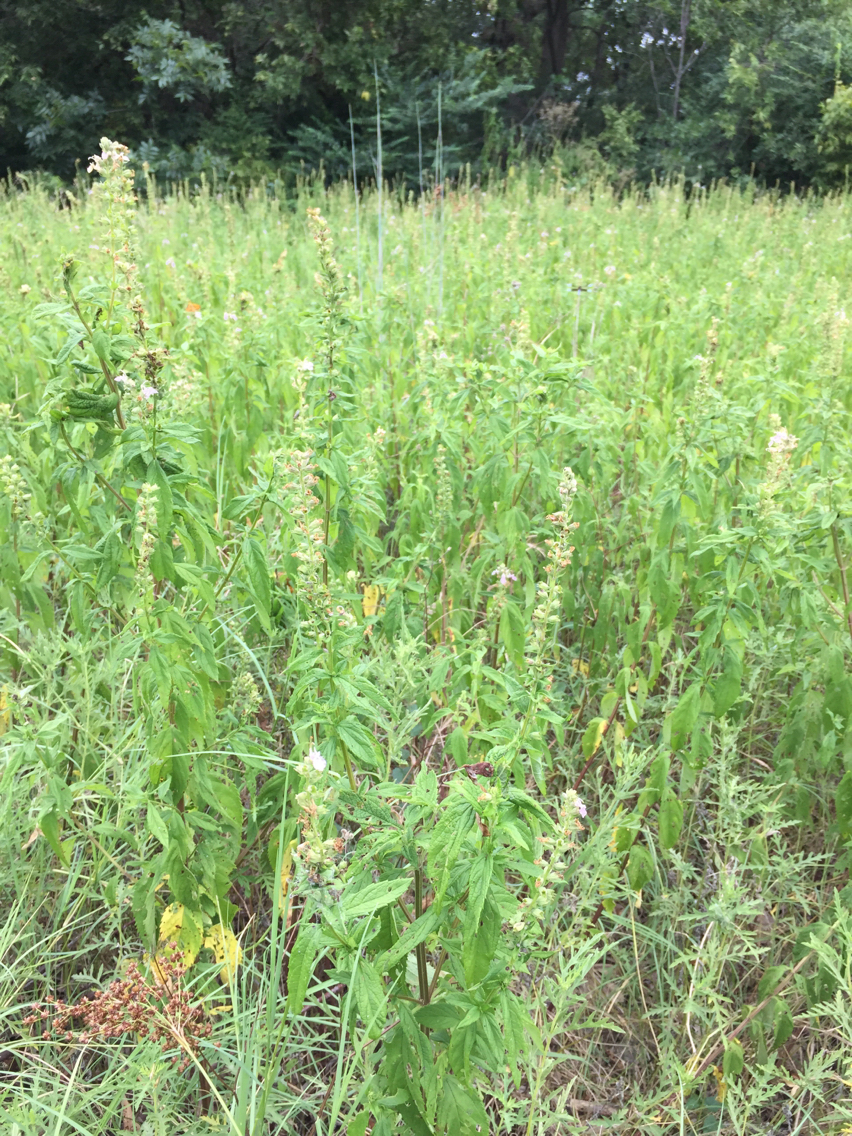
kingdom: Plantae
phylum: Tracheophyta
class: Magnoliopsida
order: Lamiales
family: Lamiaceae
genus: Teucrium
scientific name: Teucrium canadense
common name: American germander
